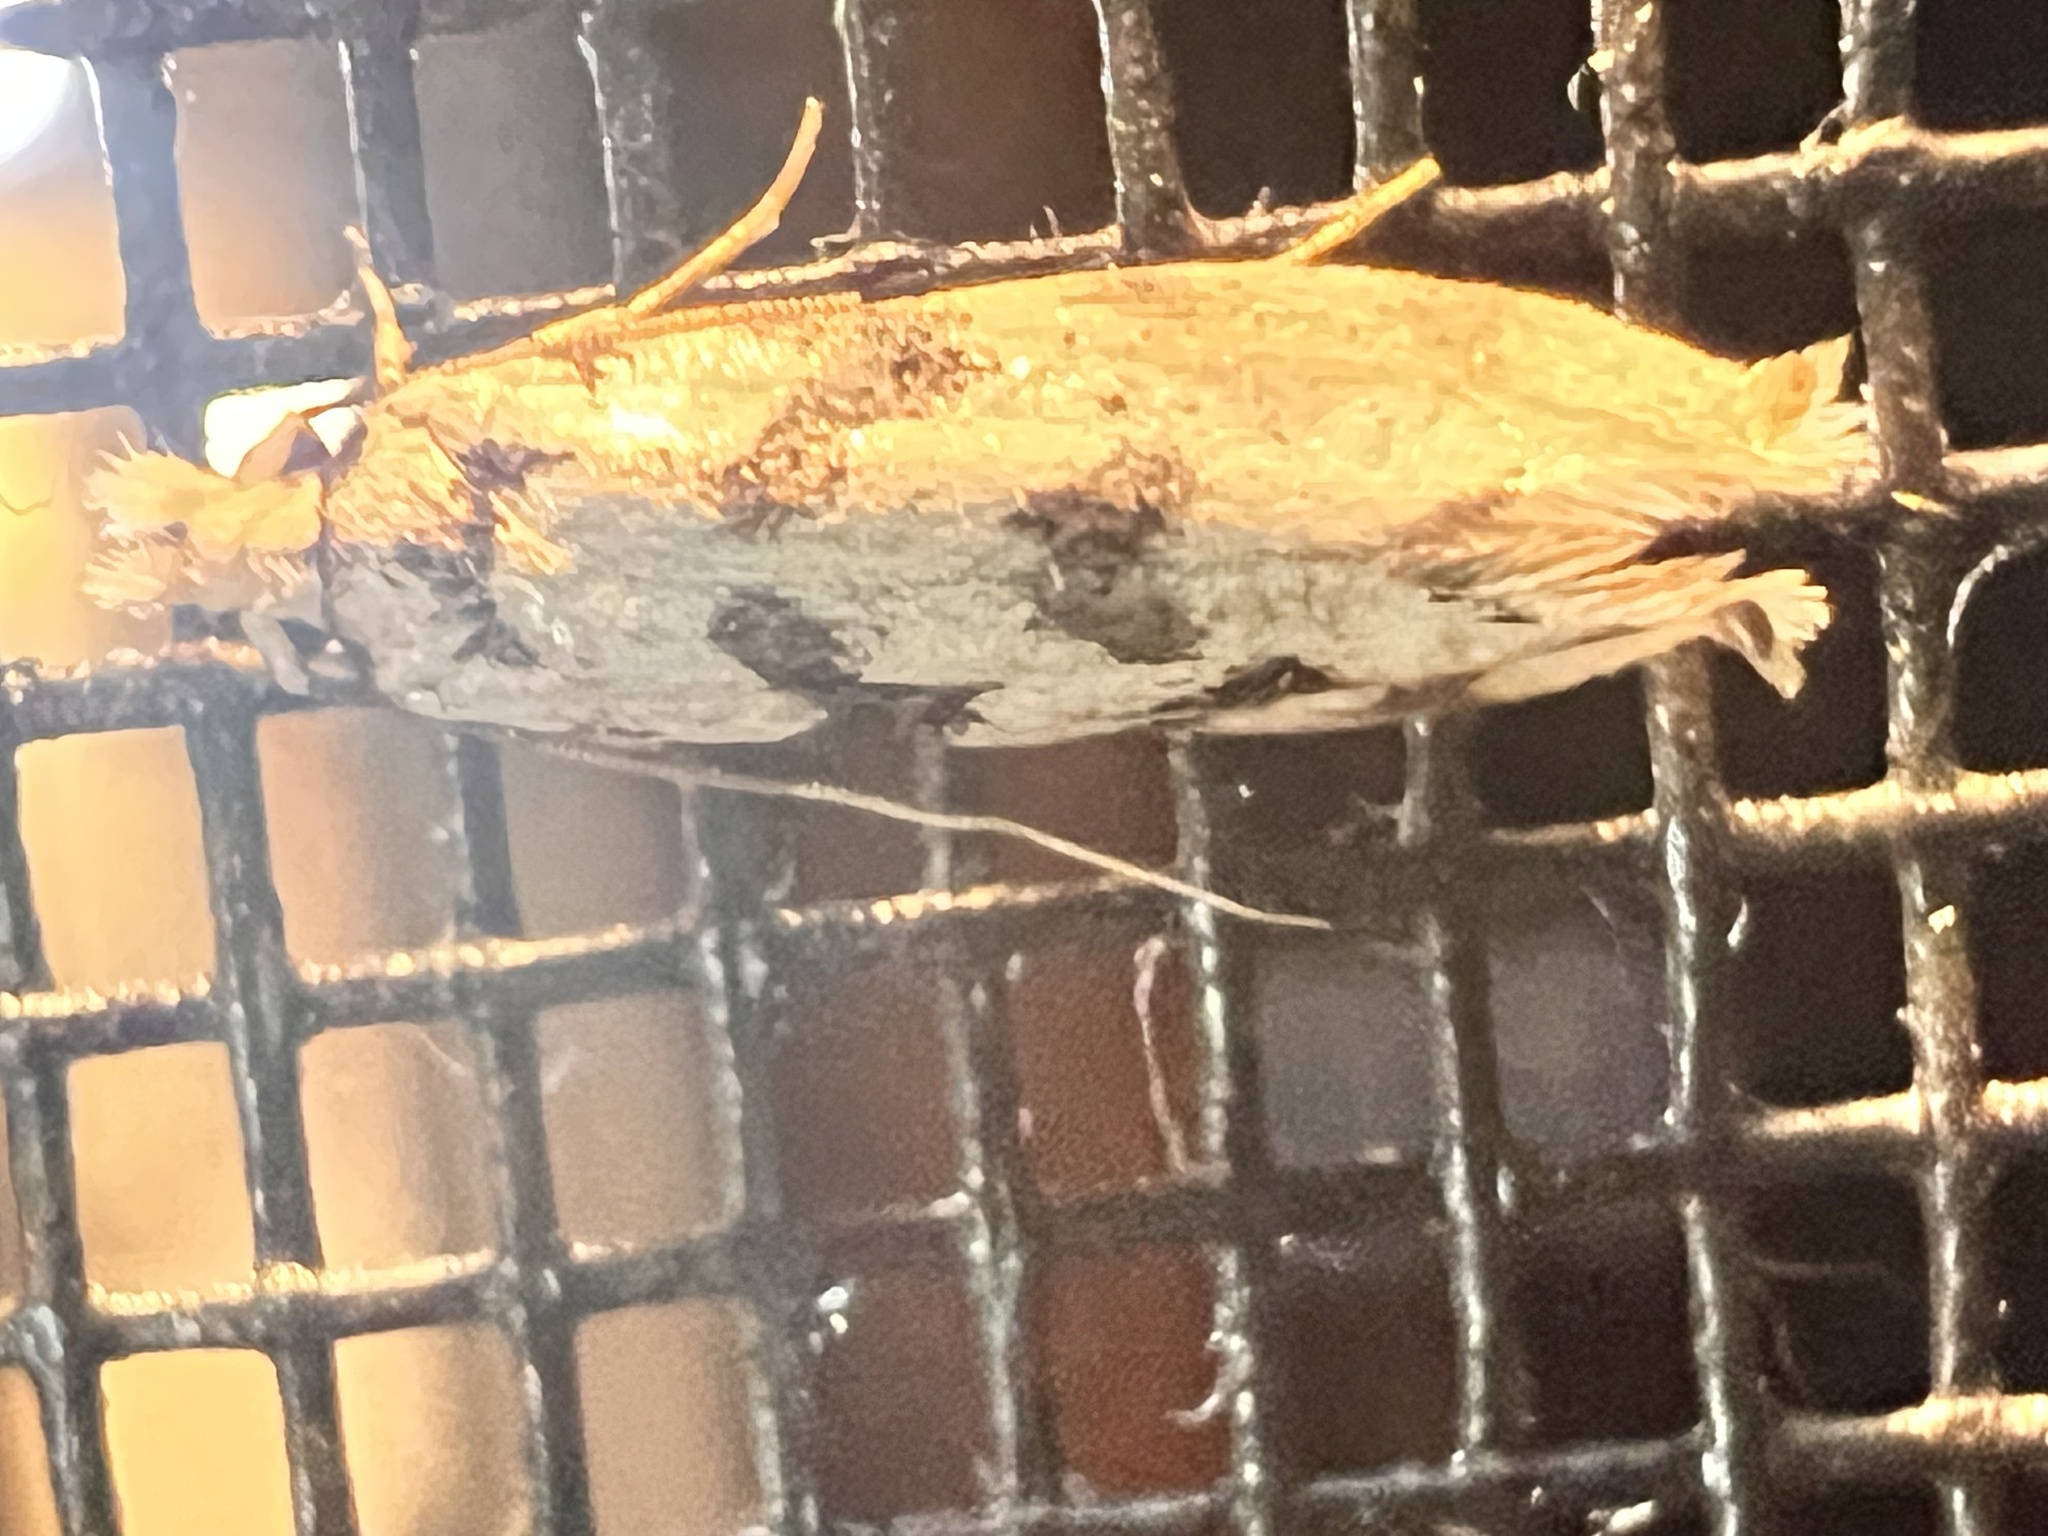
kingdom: Animalia
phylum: Arthropoda
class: Insecta
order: Lepidoptera
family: Tineidae
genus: Erechthias
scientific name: Erechthias simulans
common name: Fungus moth
